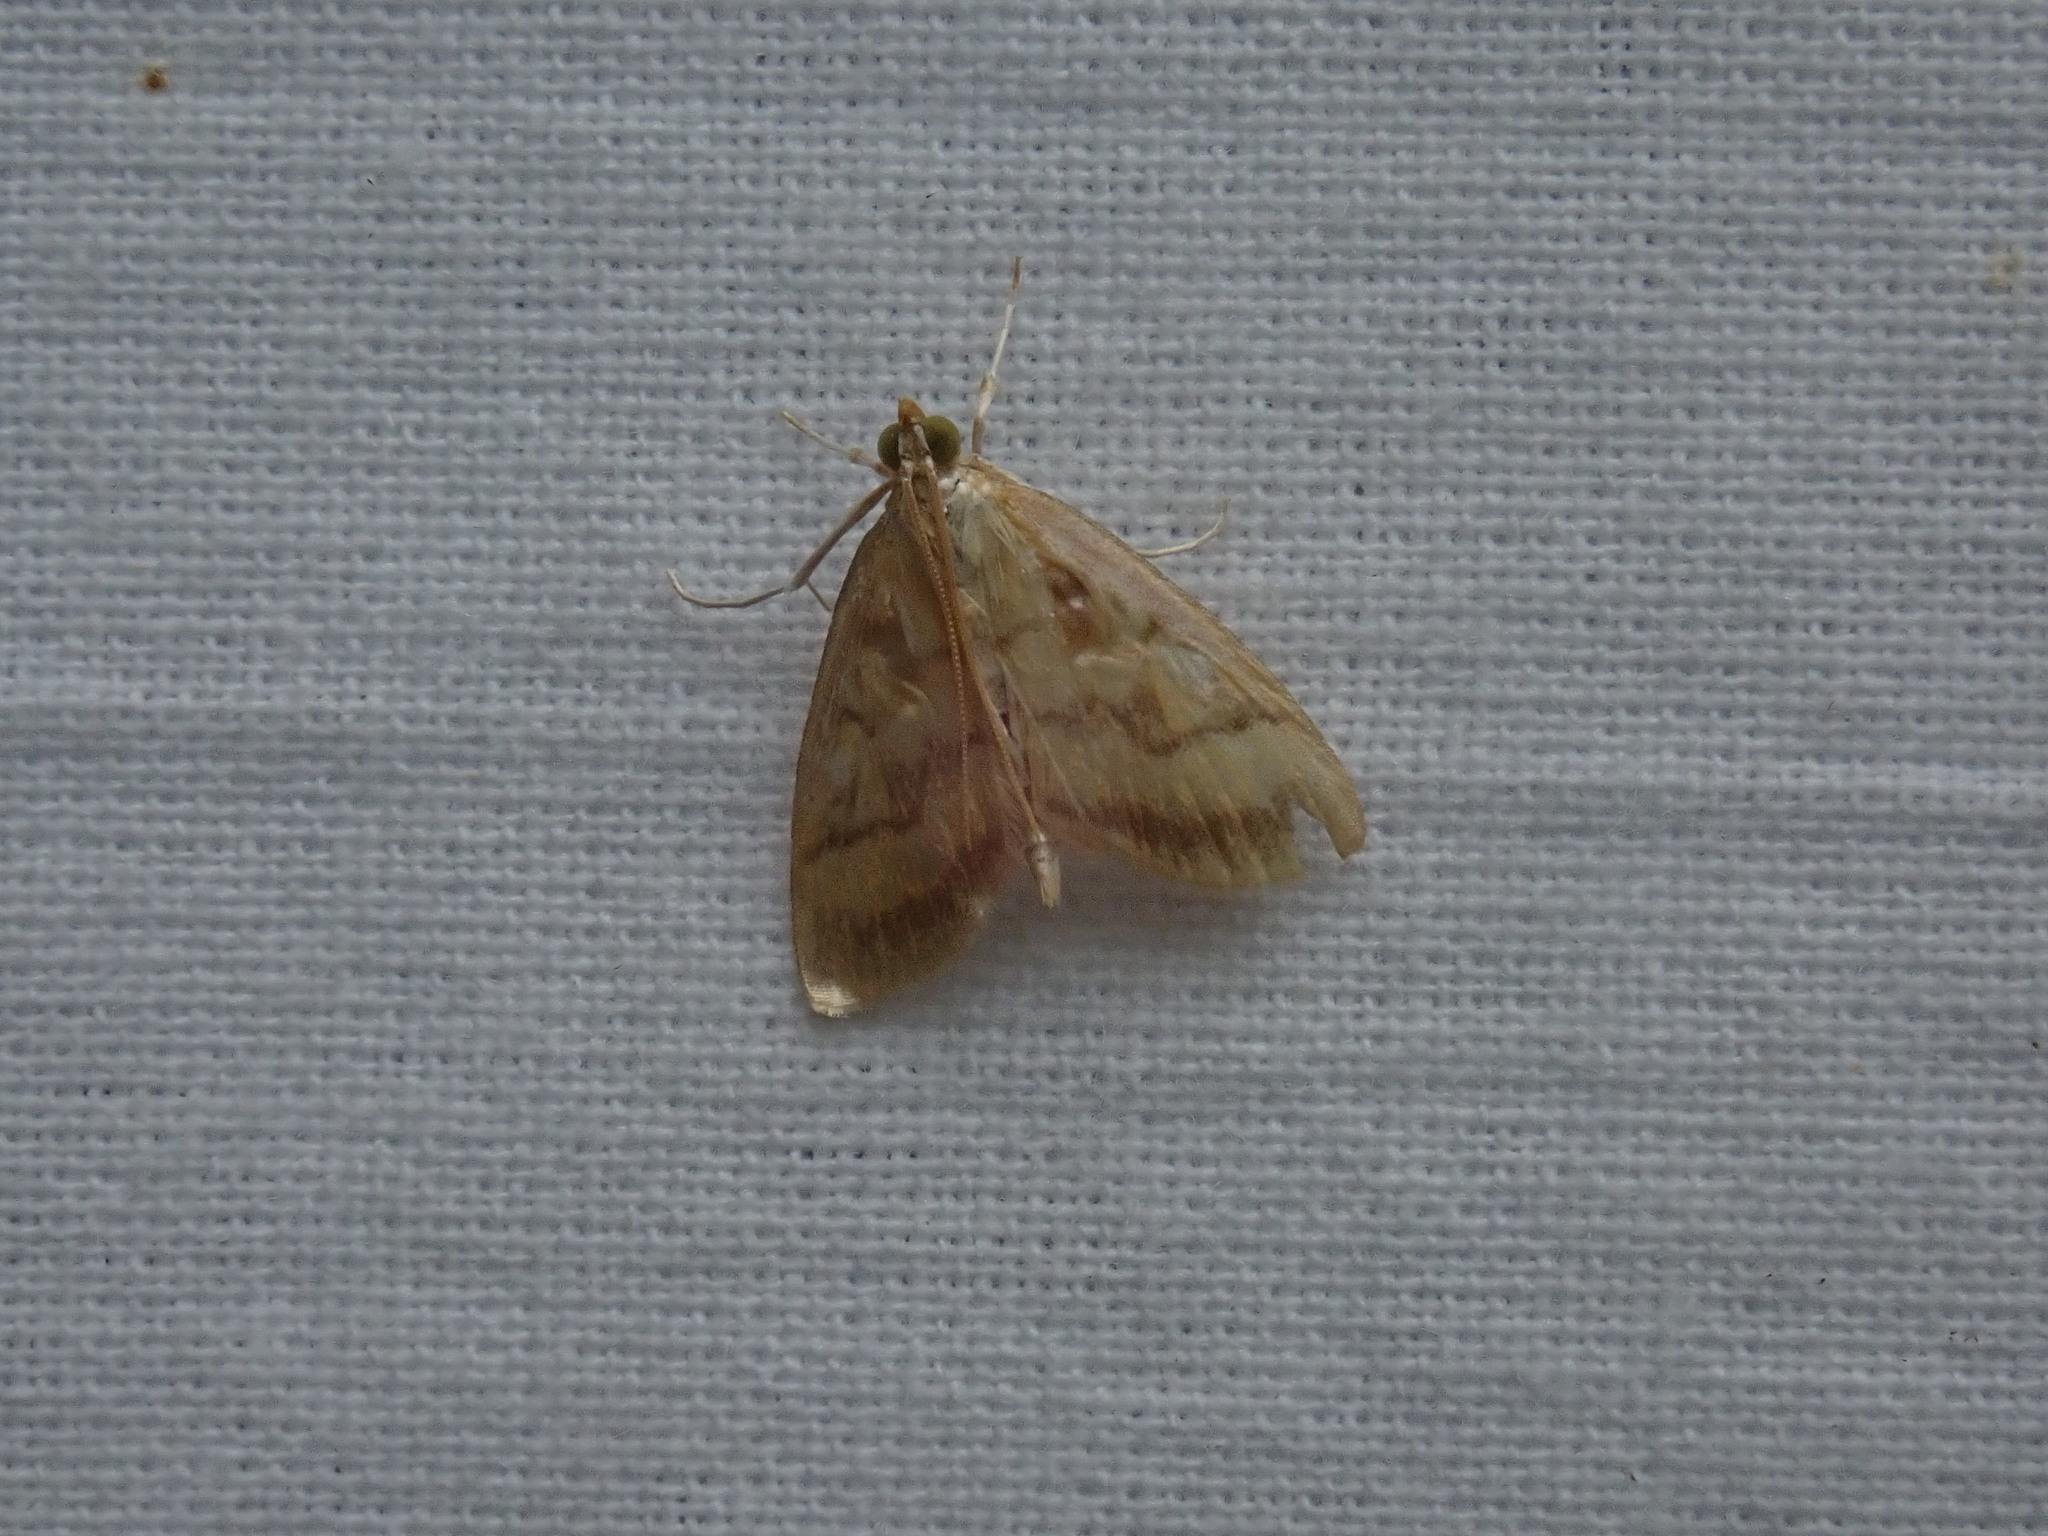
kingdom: Animalia
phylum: Arthropoda
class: Insecta
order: Lepidoptera
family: Crambidae
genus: Crocidophora
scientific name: Crocidophora tuberculalis
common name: Pale-winged crocidiphora moth
